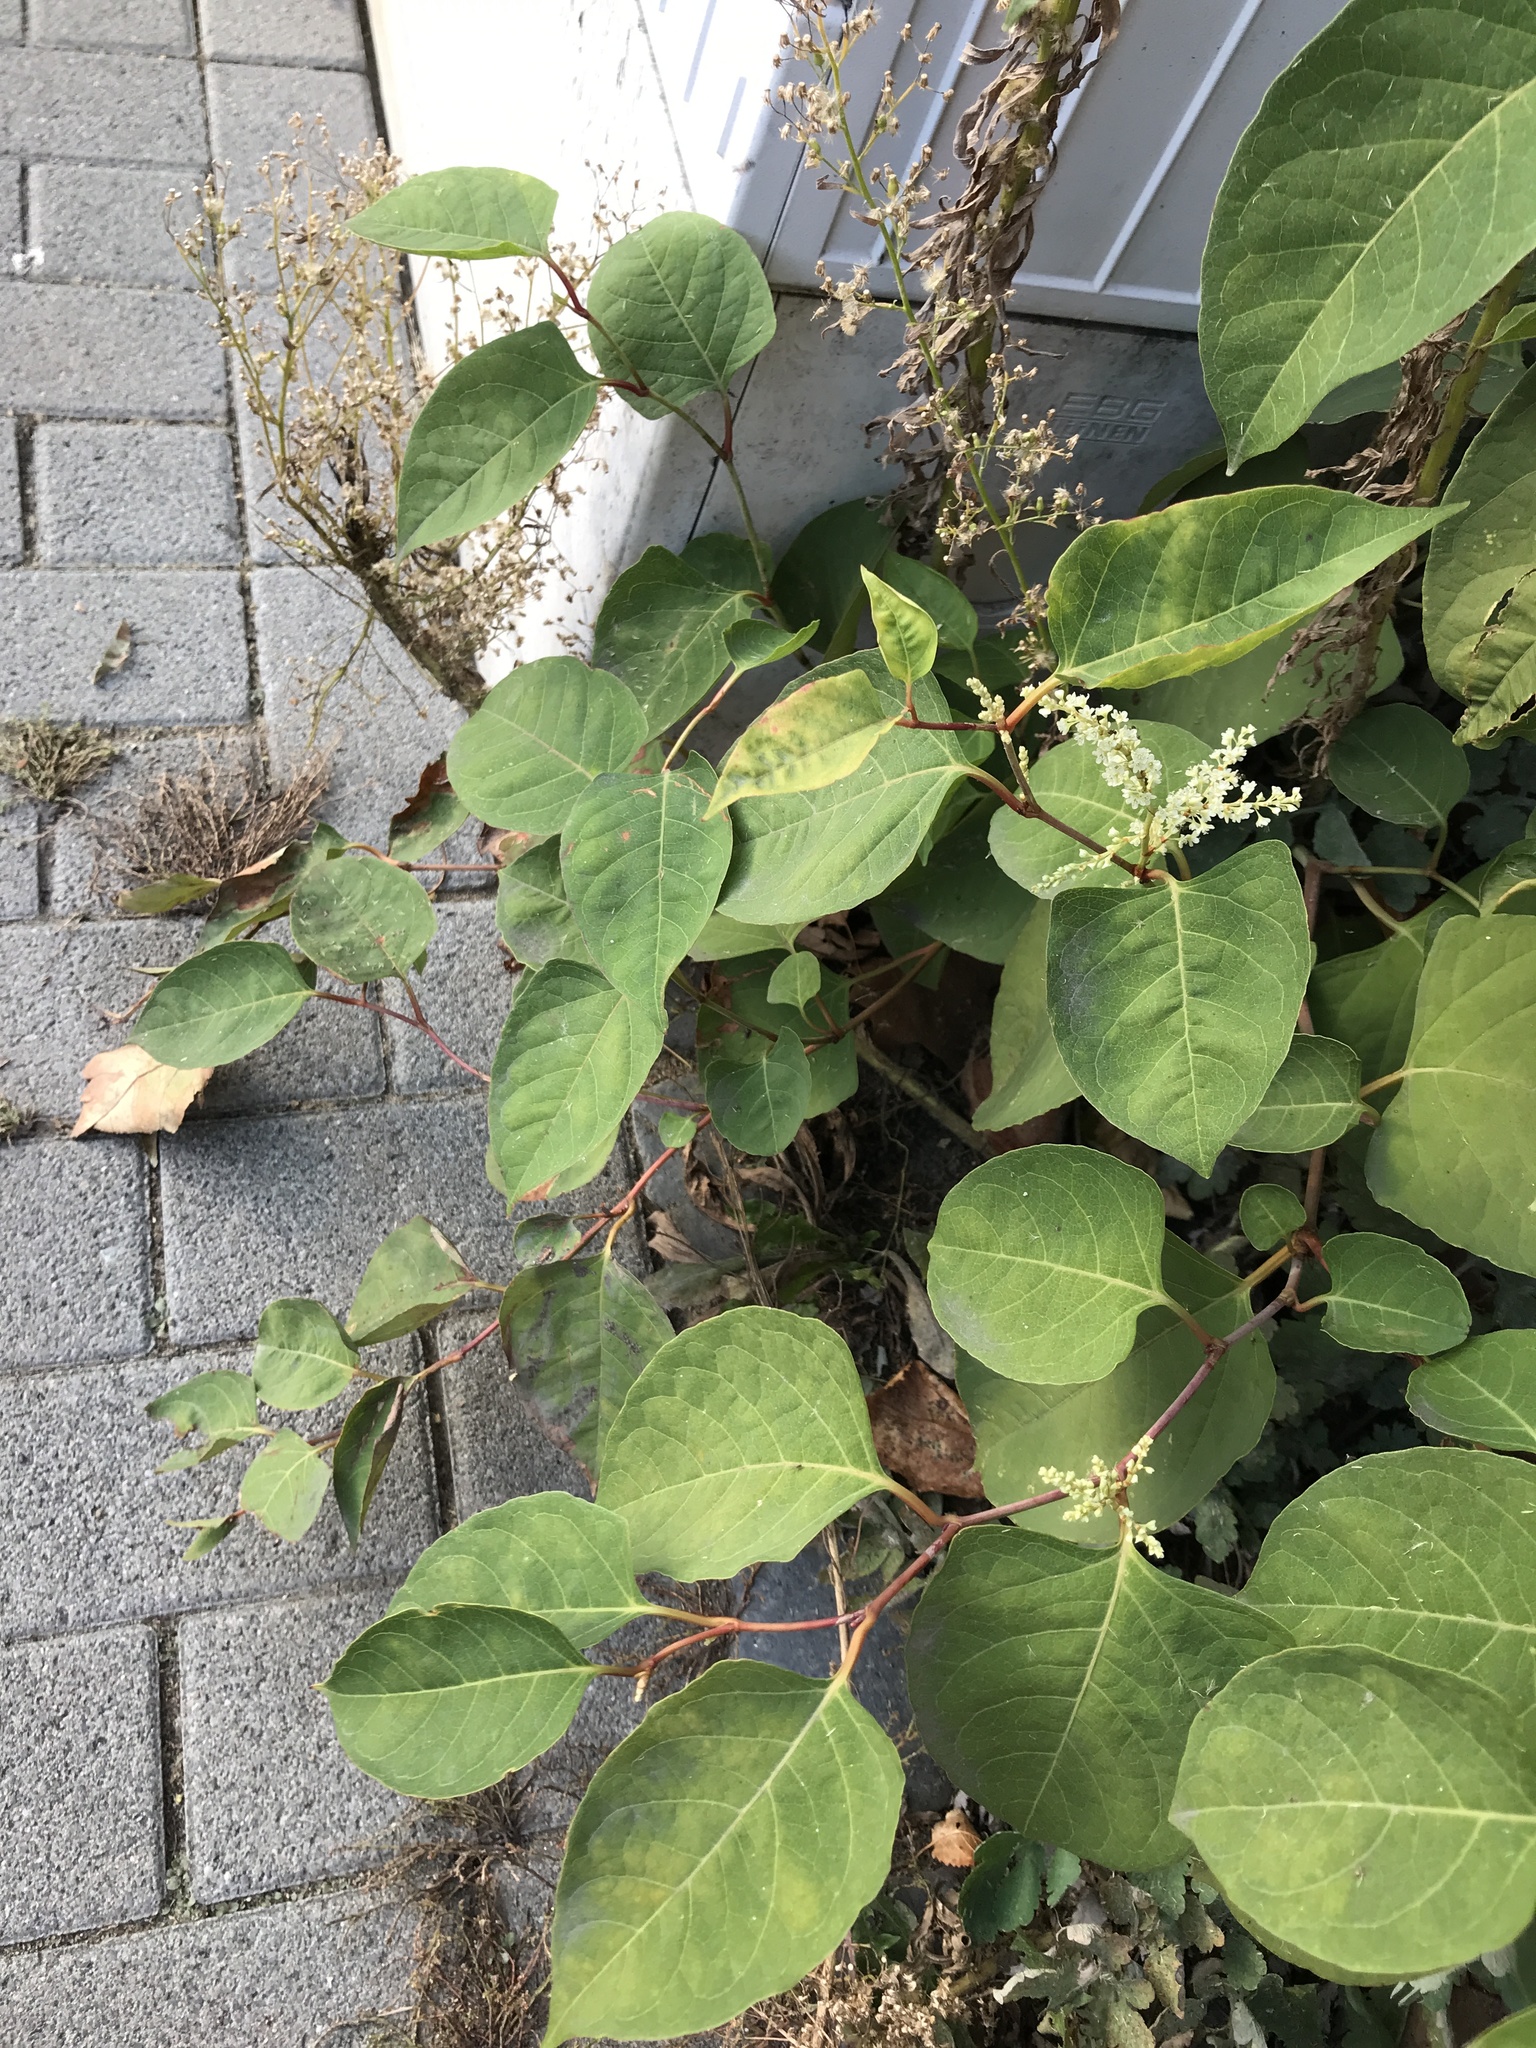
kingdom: Plantae
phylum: Tracheophyta
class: Magnoliopsida
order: Caryophyllales
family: Polygonaceae
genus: Reynoutria
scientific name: Reynoutria japonica
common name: Japanese knotweed
